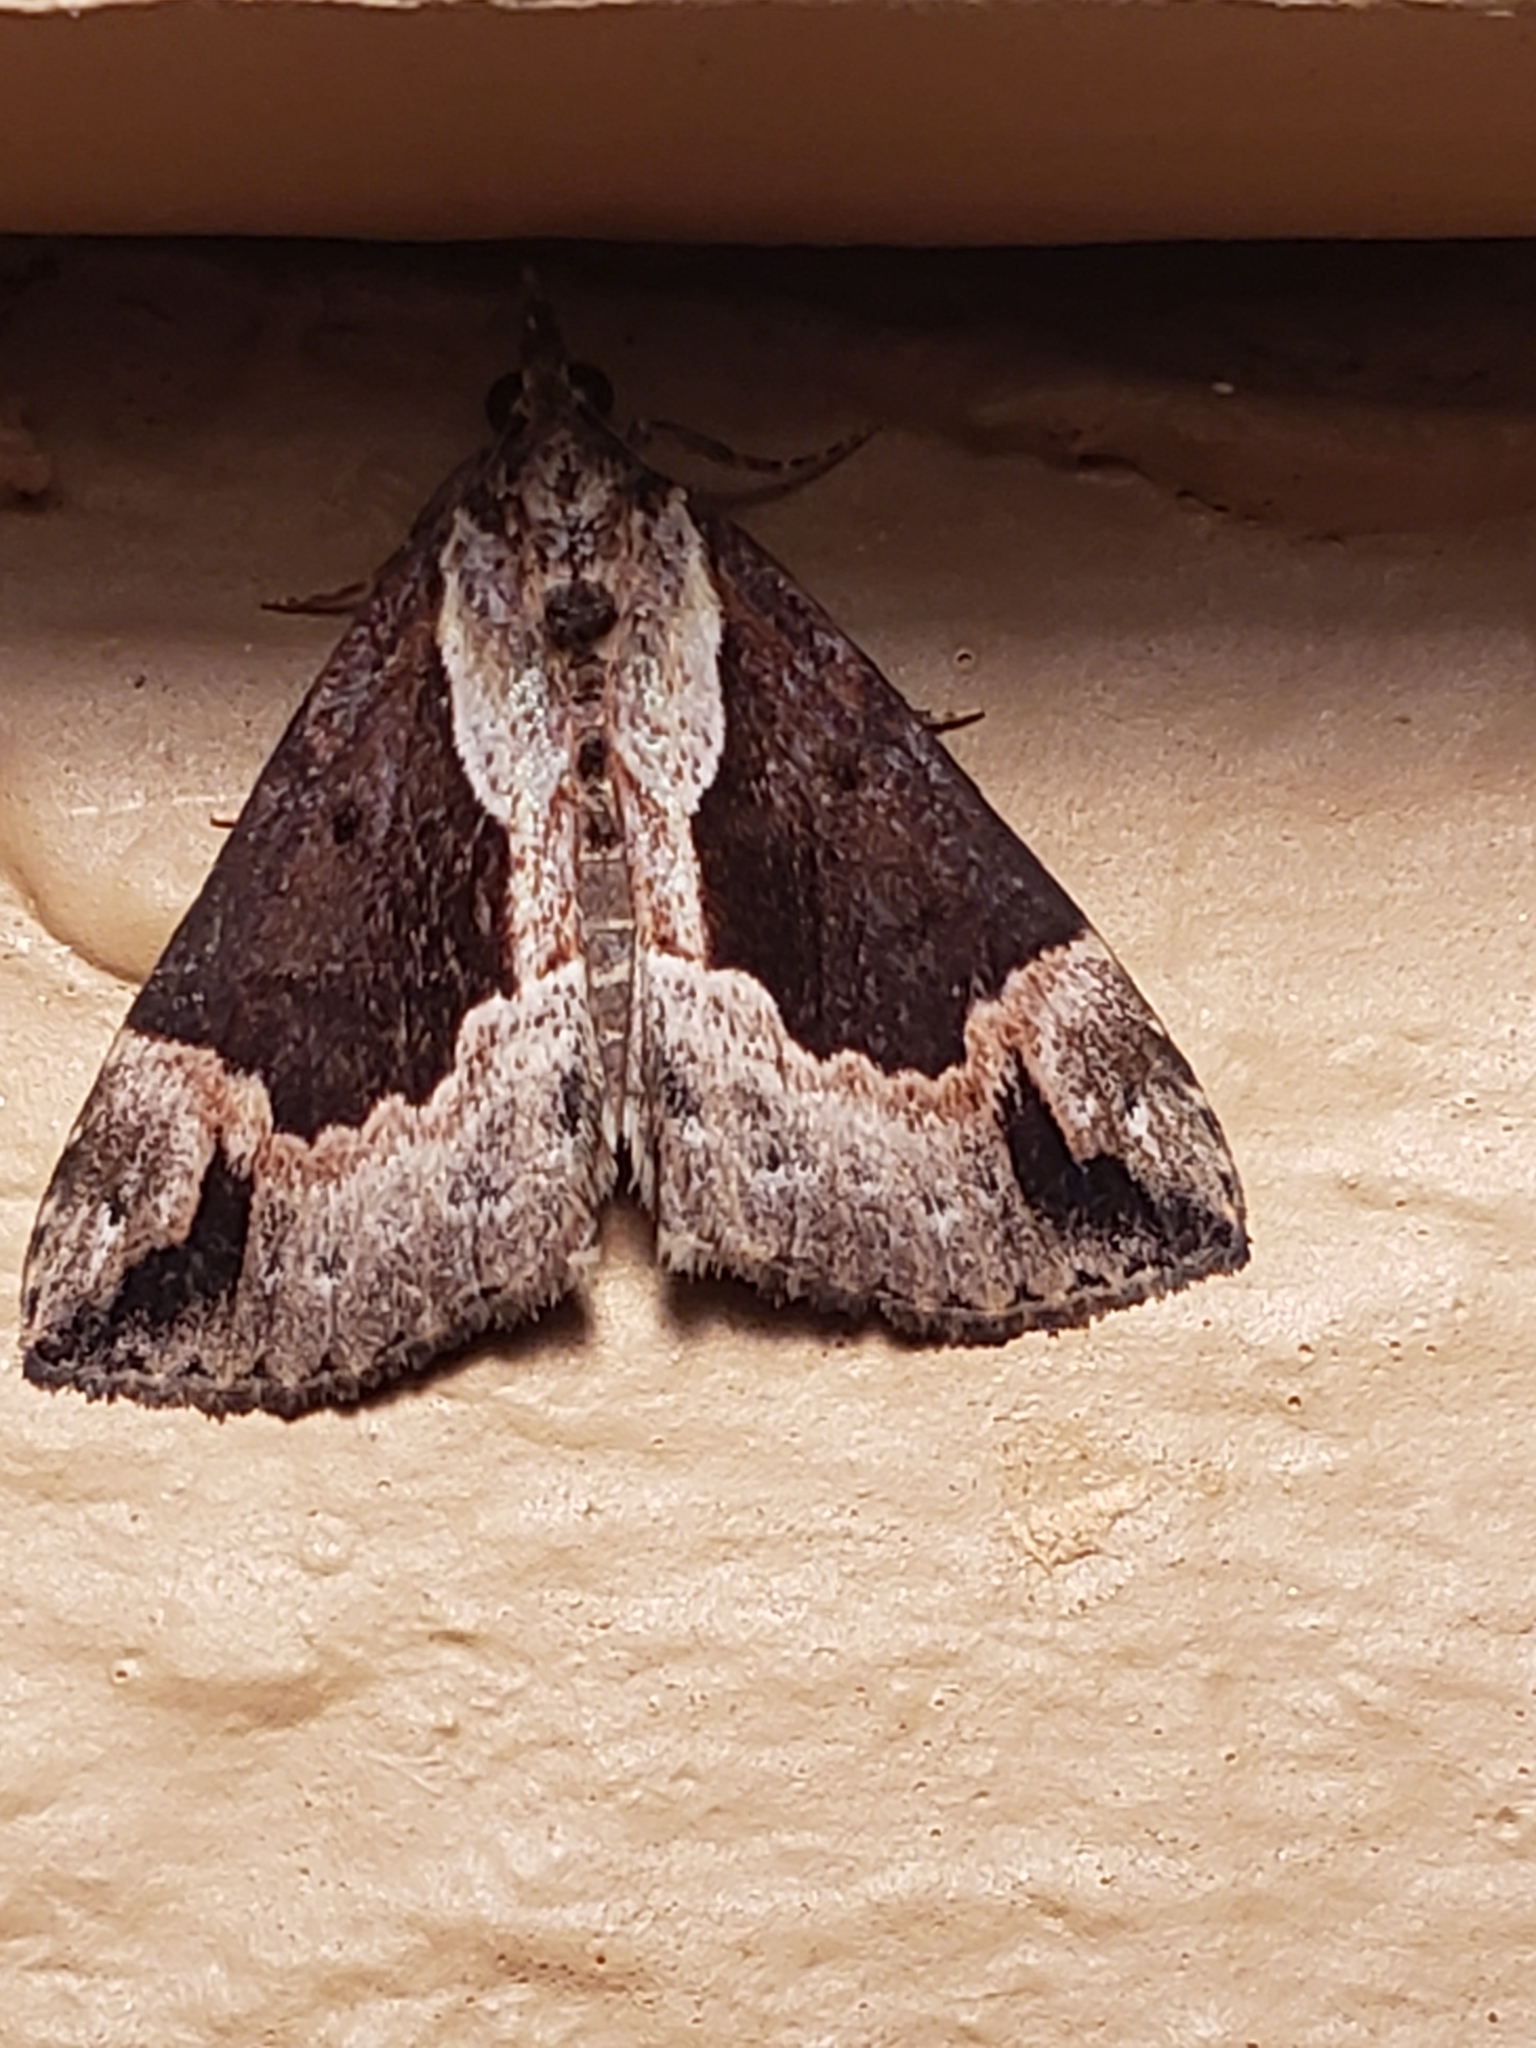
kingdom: Animalia
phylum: Arthropoda
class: Insecta
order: Lepidoptera
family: Erebidae
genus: Hypena
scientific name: Hypena baltimoralis
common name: Baltimore snout
